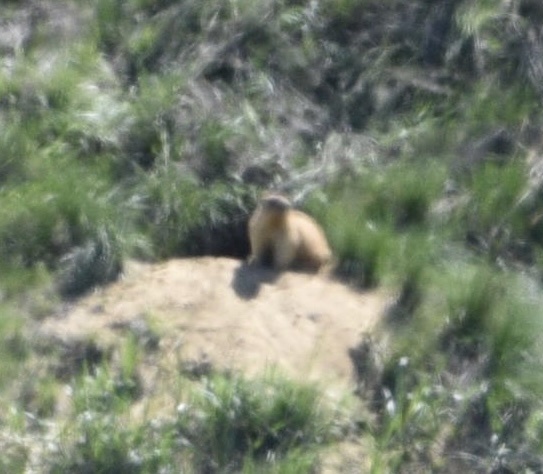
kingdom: Animalia
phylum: Chordata
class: Mammalia
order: Rodentia
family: Sciuridae
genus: Marmota
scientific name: Marmota bobak
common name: Bobak marmot
